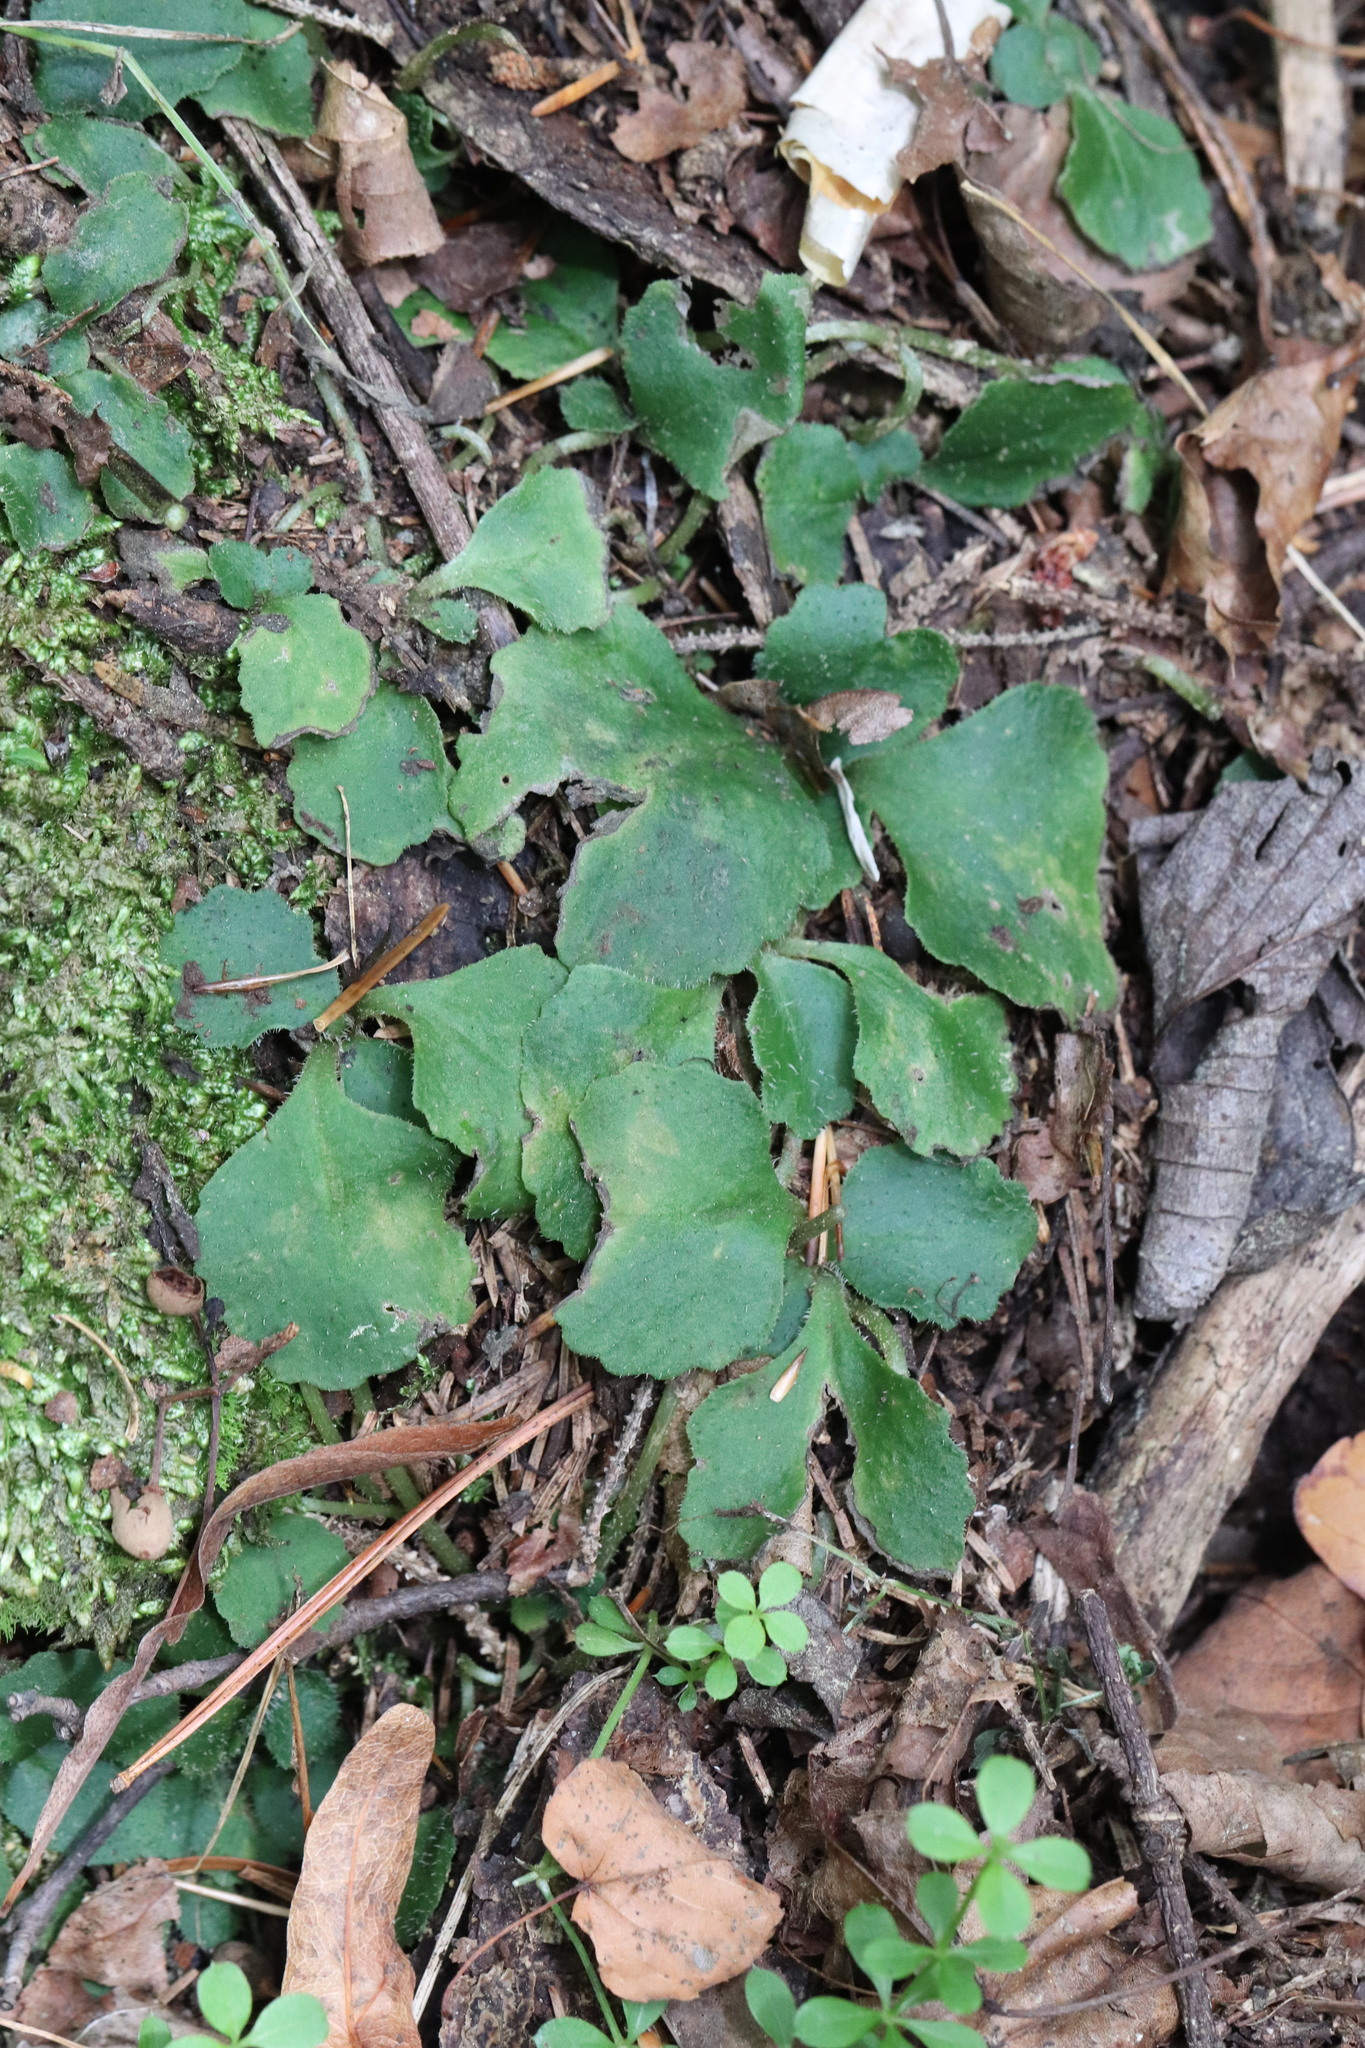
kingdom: Plantae
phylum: Tracheophyta
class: Magnoliopsida
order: Saxifragales
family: Saxifragaceae
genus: Chrysosplenium
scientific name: Chrysosplenium pilosum
